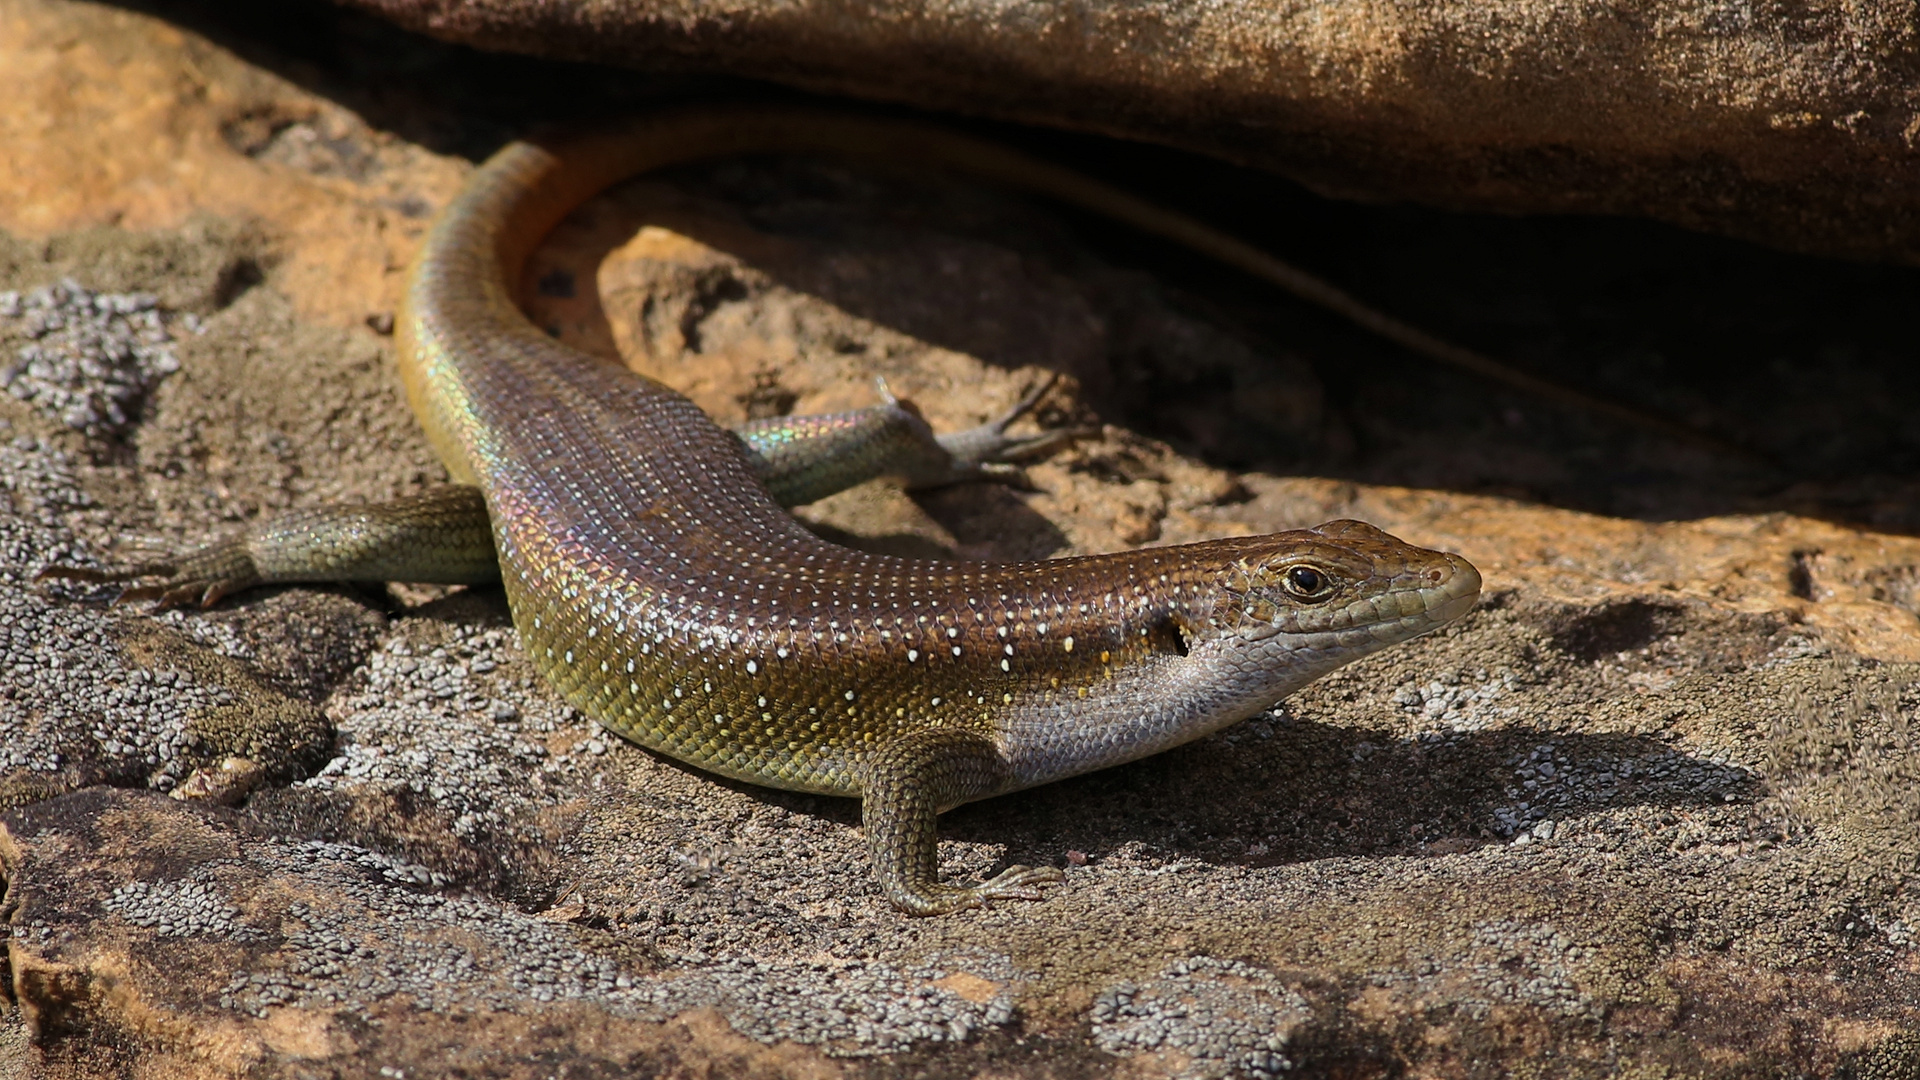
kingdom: Animalia
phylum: Chordata
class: Squamata
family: Scincidae
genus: Trachylepis
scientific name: Trachylepis margaritifera
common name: Rainbow skink
